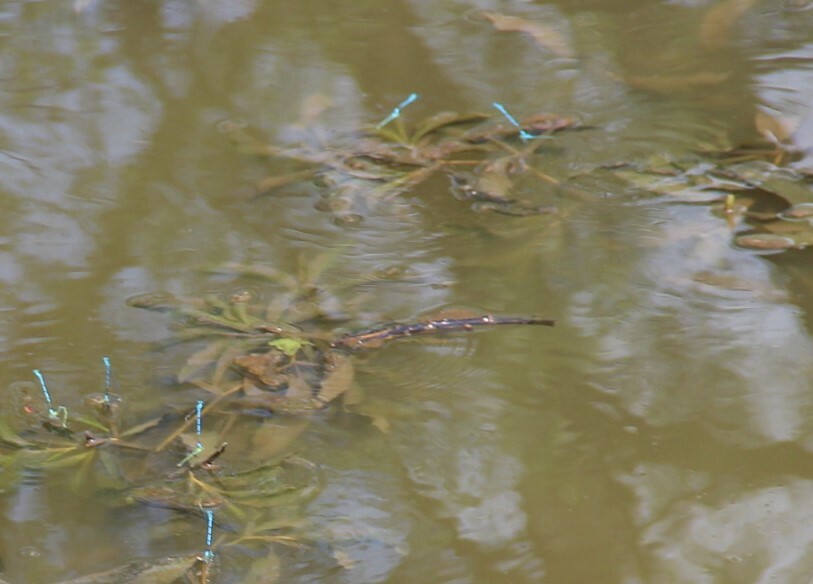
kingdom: Plantae
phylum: Tracheophyta
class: Liliopsida
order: Alismatales
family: Potamogetonaceae
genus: Potamogeton
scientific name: Potamogeton lucens
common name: Shining pondweed
